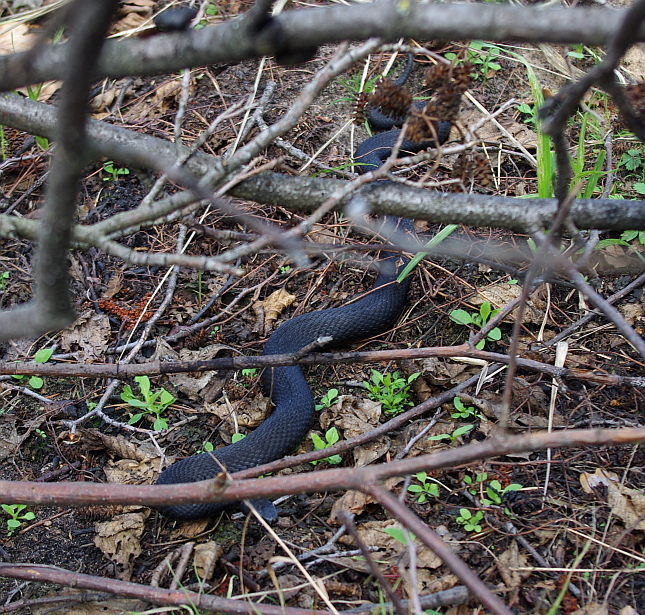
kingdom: Animalia
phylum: Chordata
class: Squamata
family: Viperidae
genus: Vipera
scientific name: Vipera berus
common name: Adder
